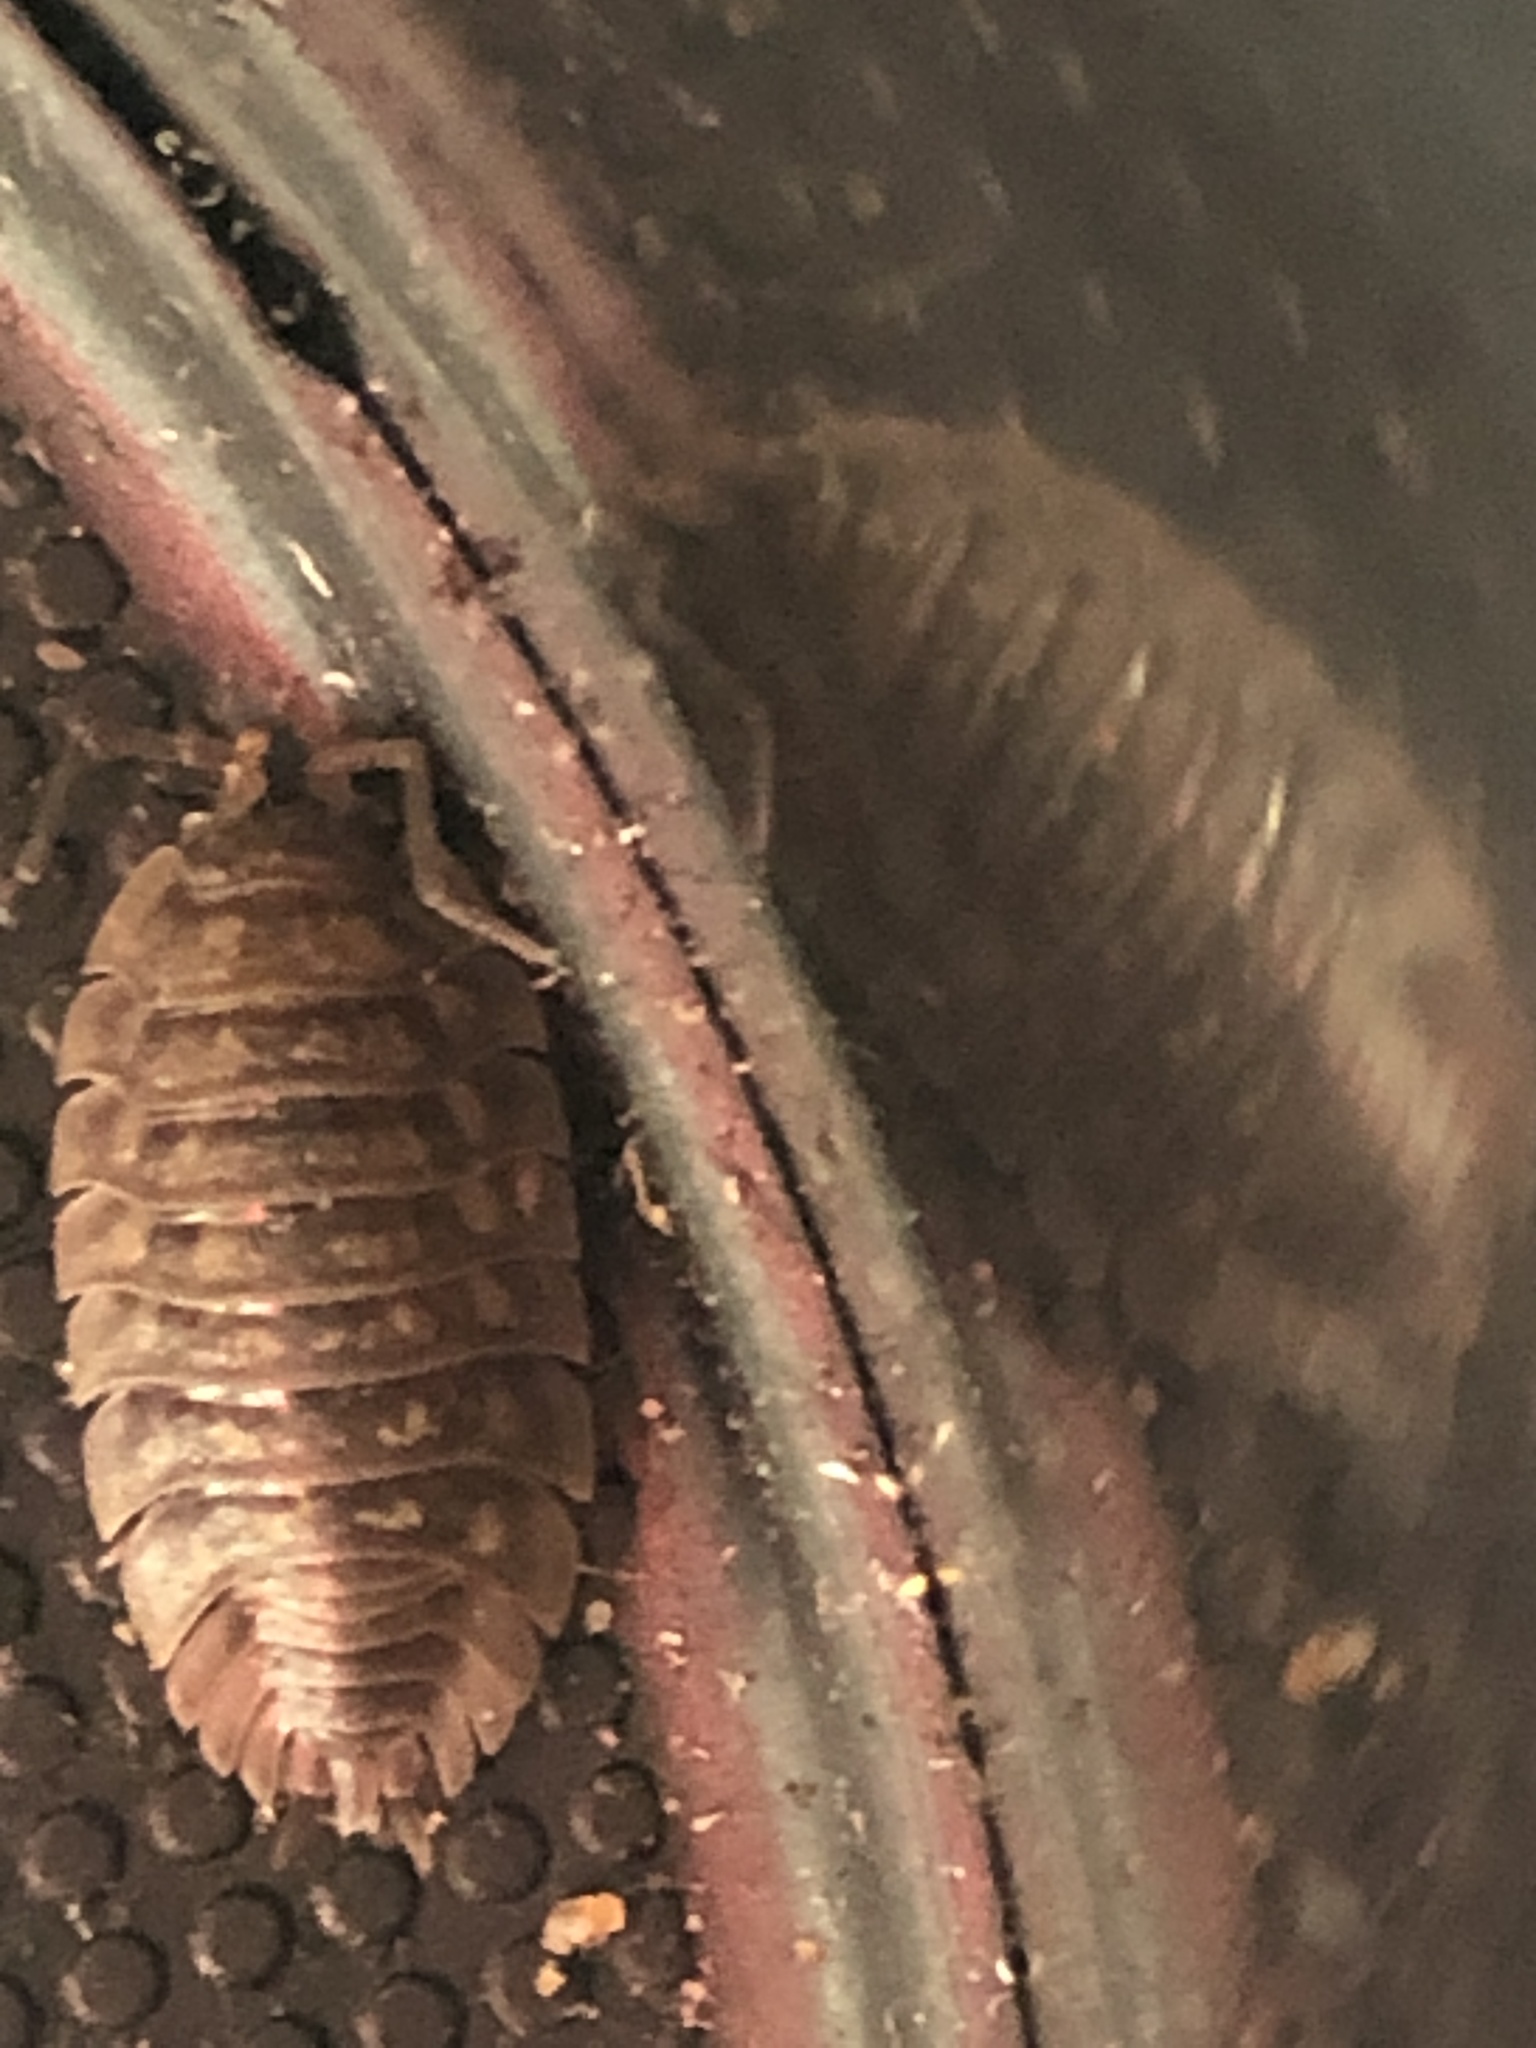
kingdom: Animalia
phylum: Arthropoda
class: Malacostraca
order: Isopoda
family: Oniscidae
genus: Oniscus
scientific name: Oniscus asellus
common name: Common shiny woodlouse
